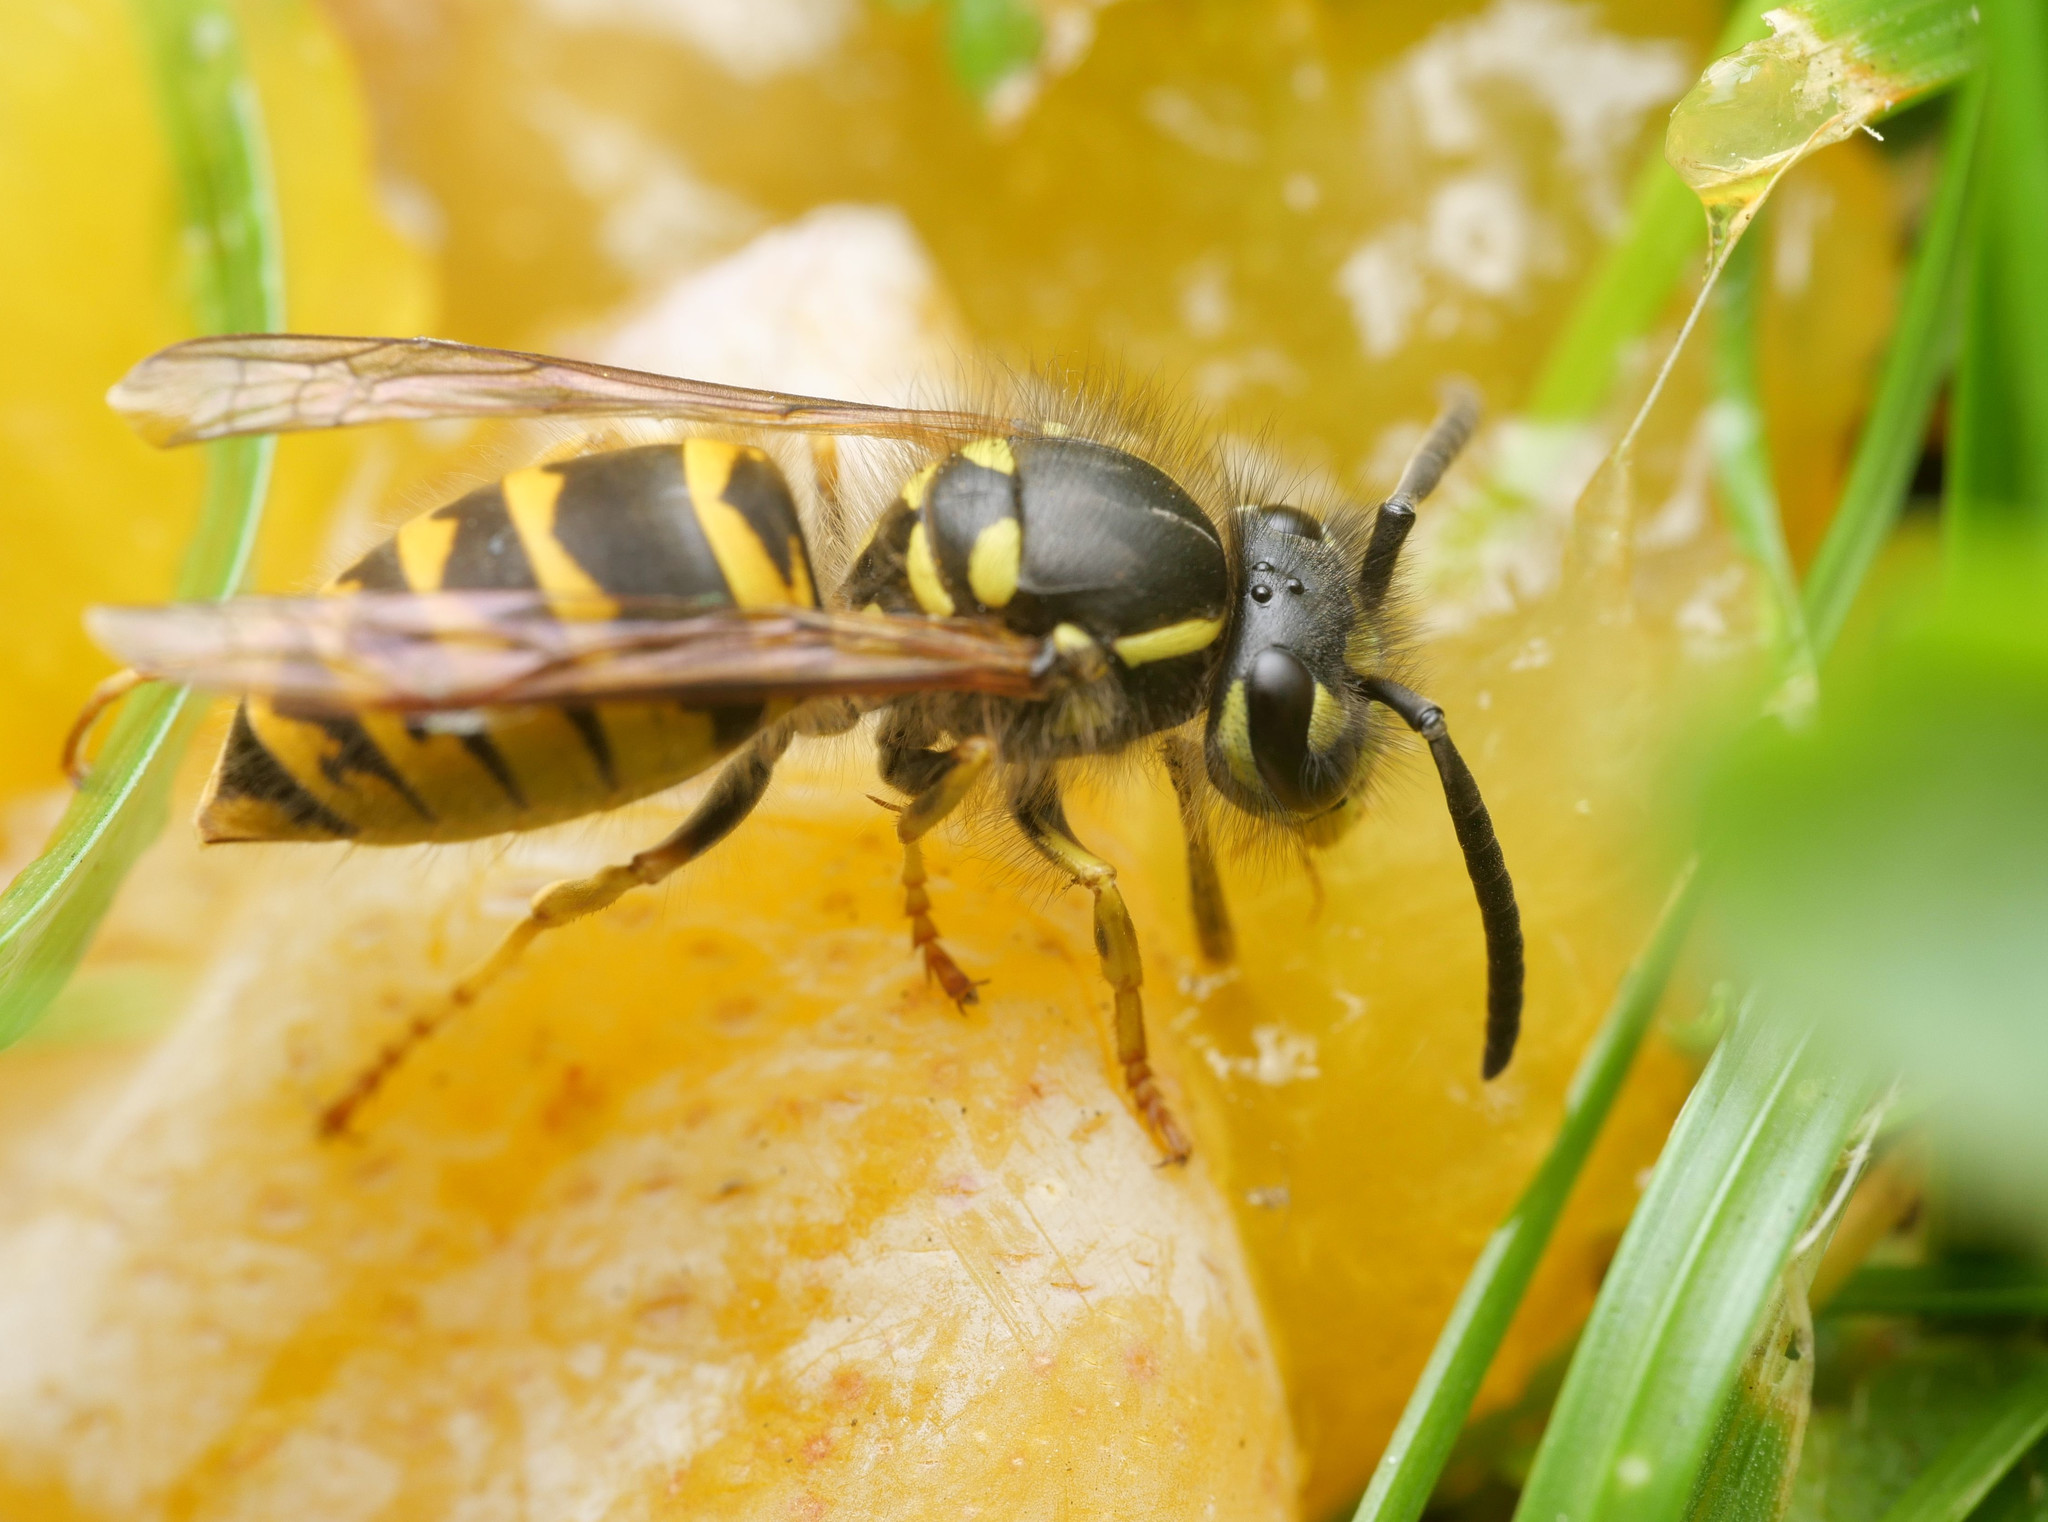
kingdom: Animalia
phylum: Arthropoda
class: Insecta
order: Hymenoptera
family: Vespidae
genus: Vespula
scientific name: Vespula vulgaris
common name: Common wasp
